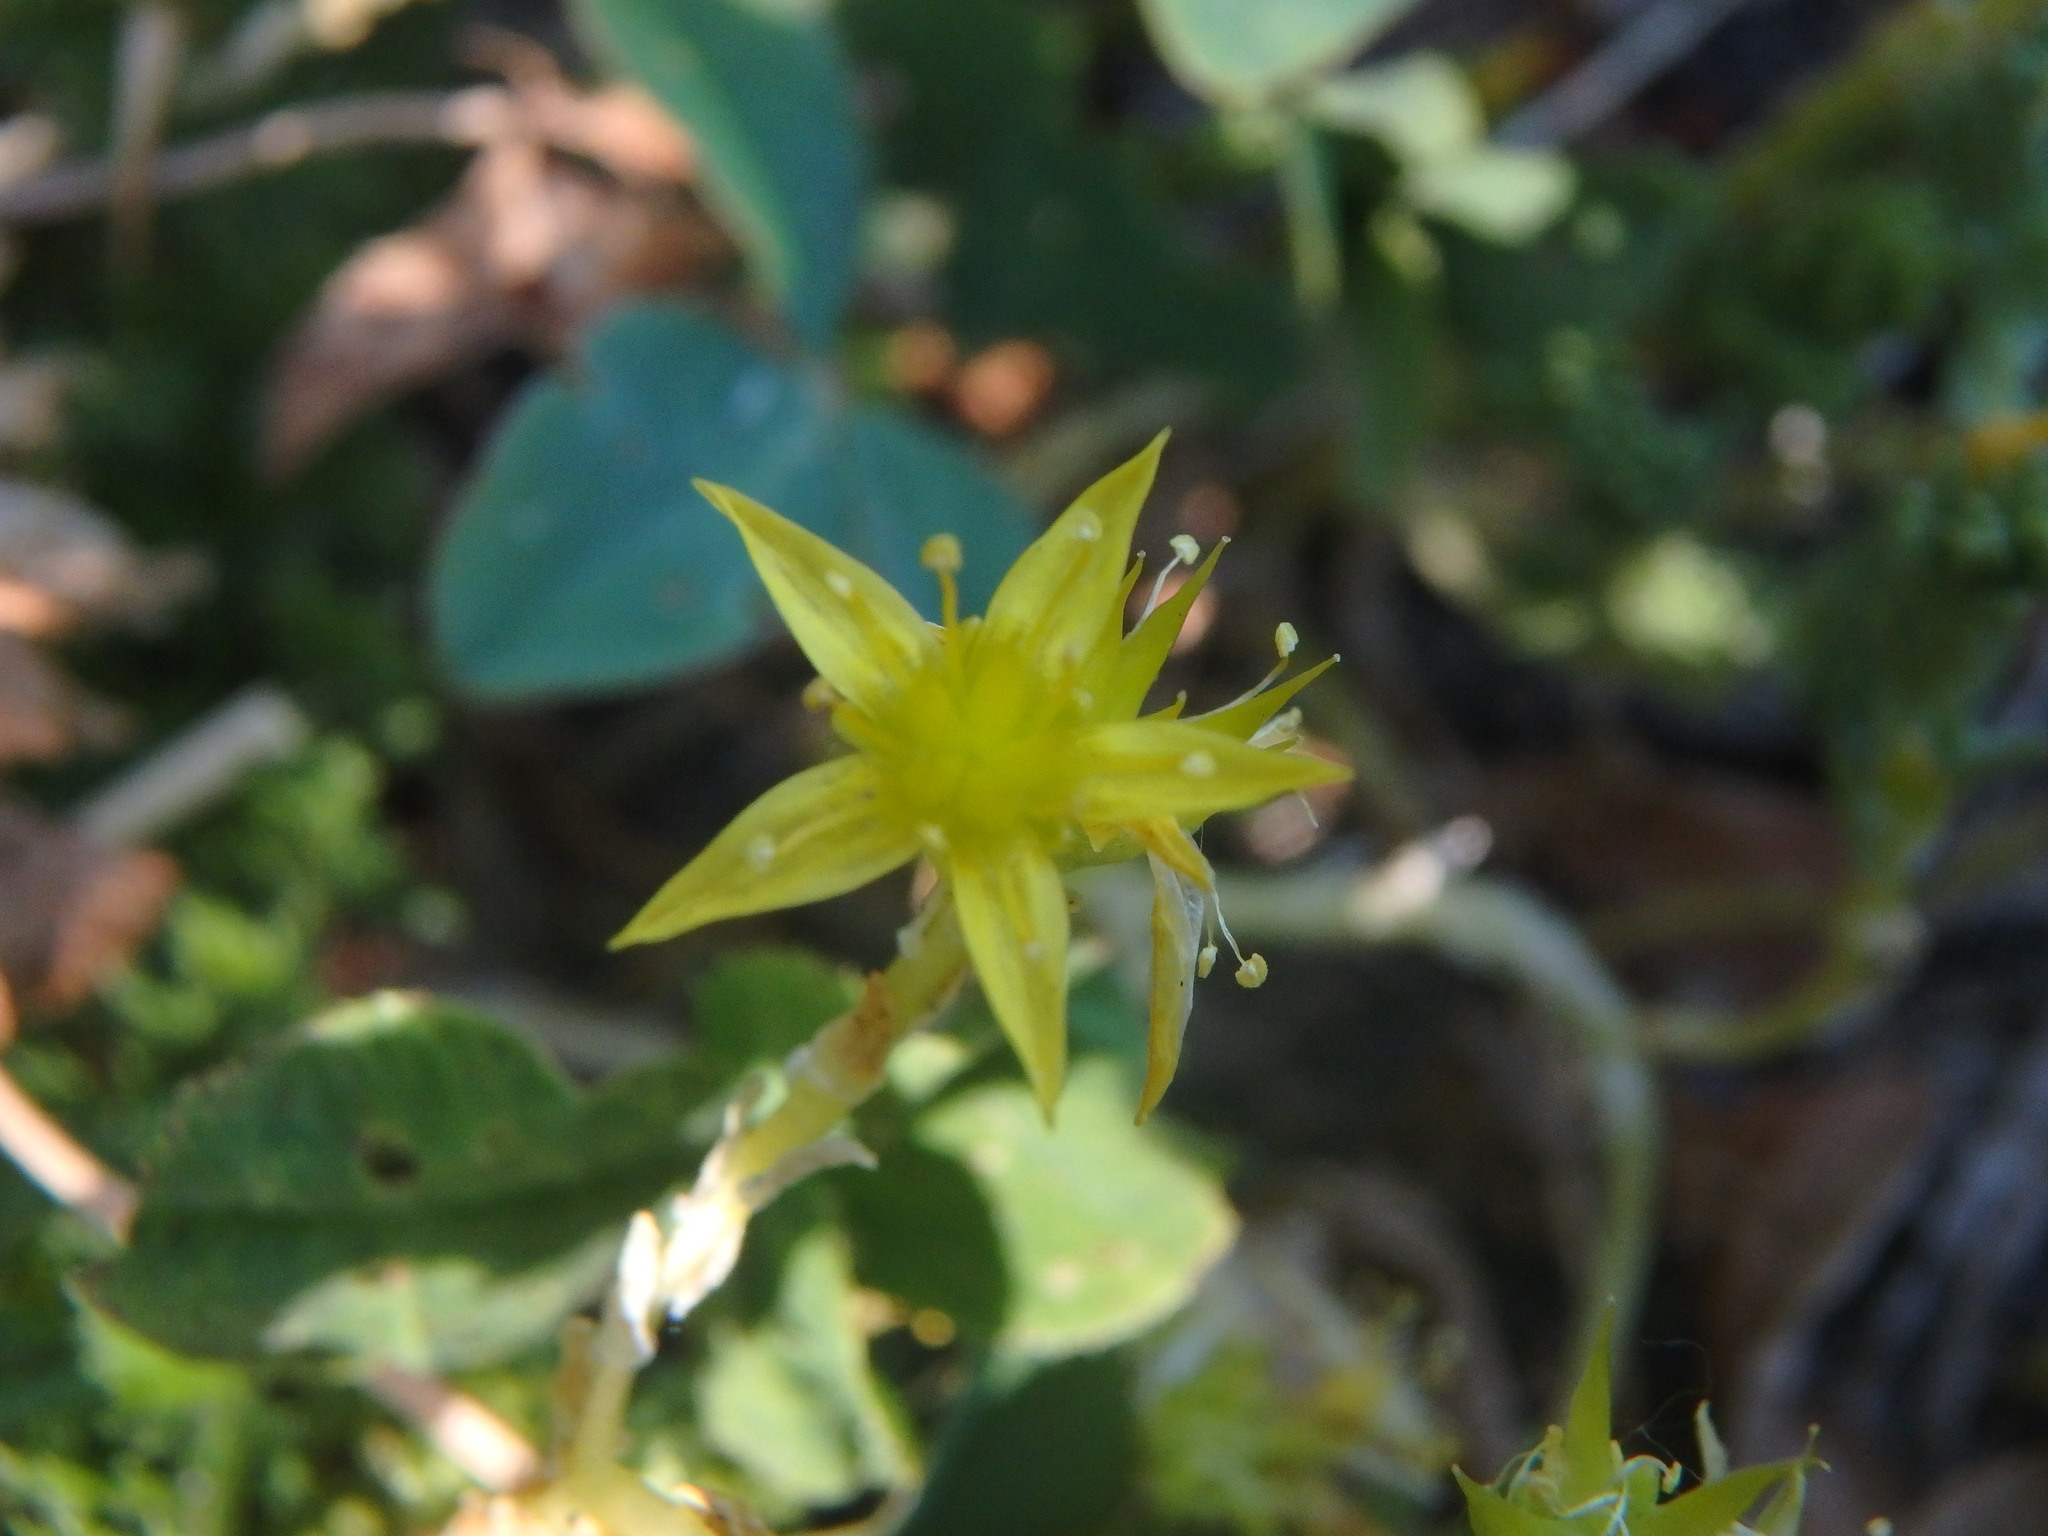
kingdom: Plantae
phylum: Tracheophyta
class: Magnoliopsida
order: Saxifragales
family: Crassulaceae
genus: Sedum
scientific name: Sedum acre
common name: Biting stonecrop
